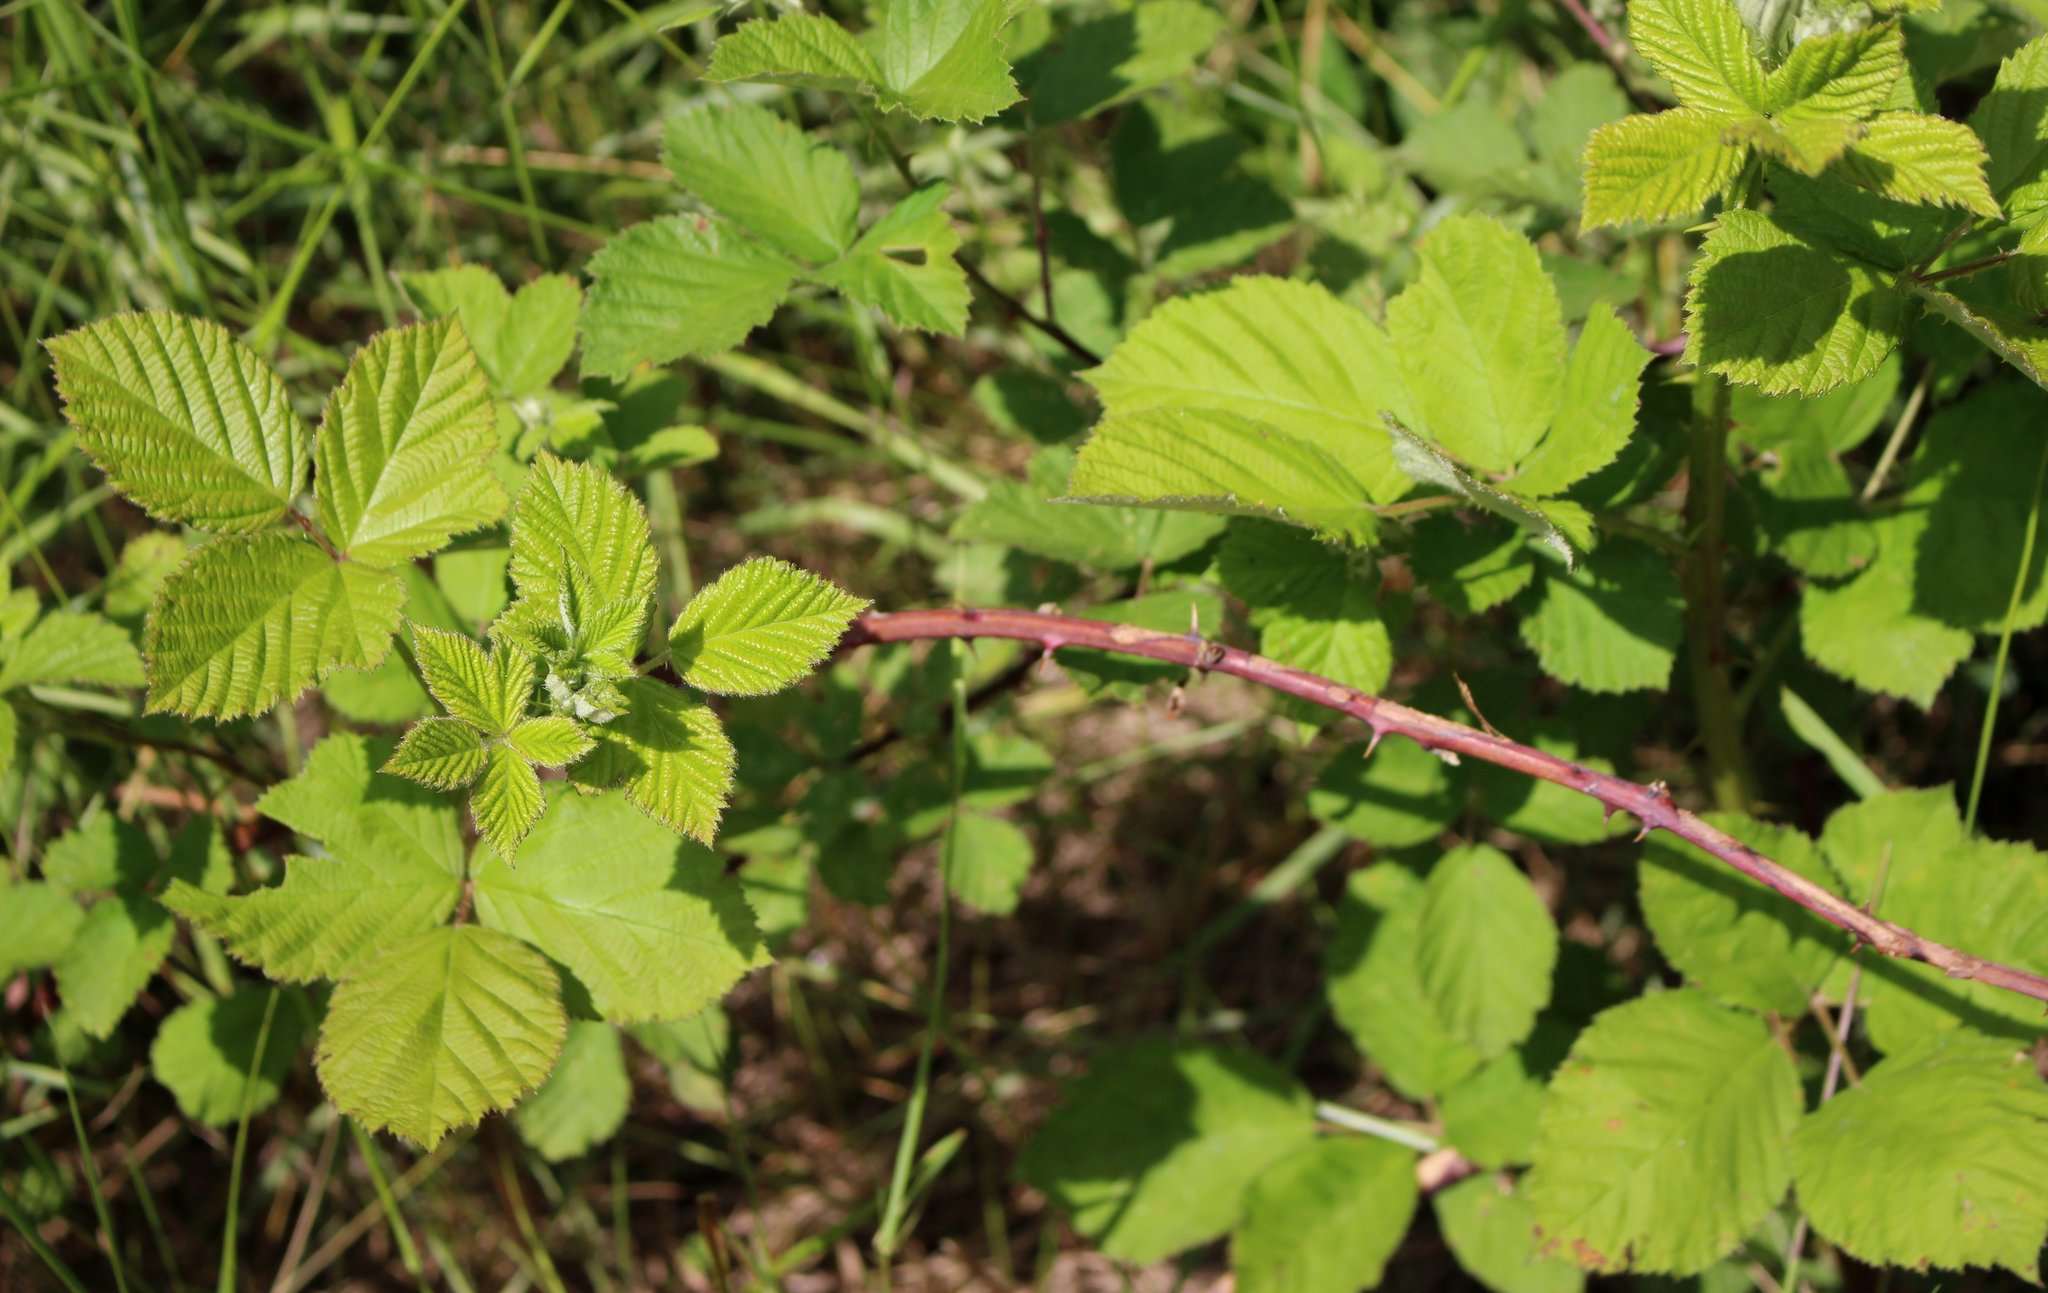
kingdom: Plantae
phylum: Tracheophyta
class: Magnoliopsida
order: Rosales
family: Rosaceae
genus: Rubus
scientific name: Rubus sanctus
